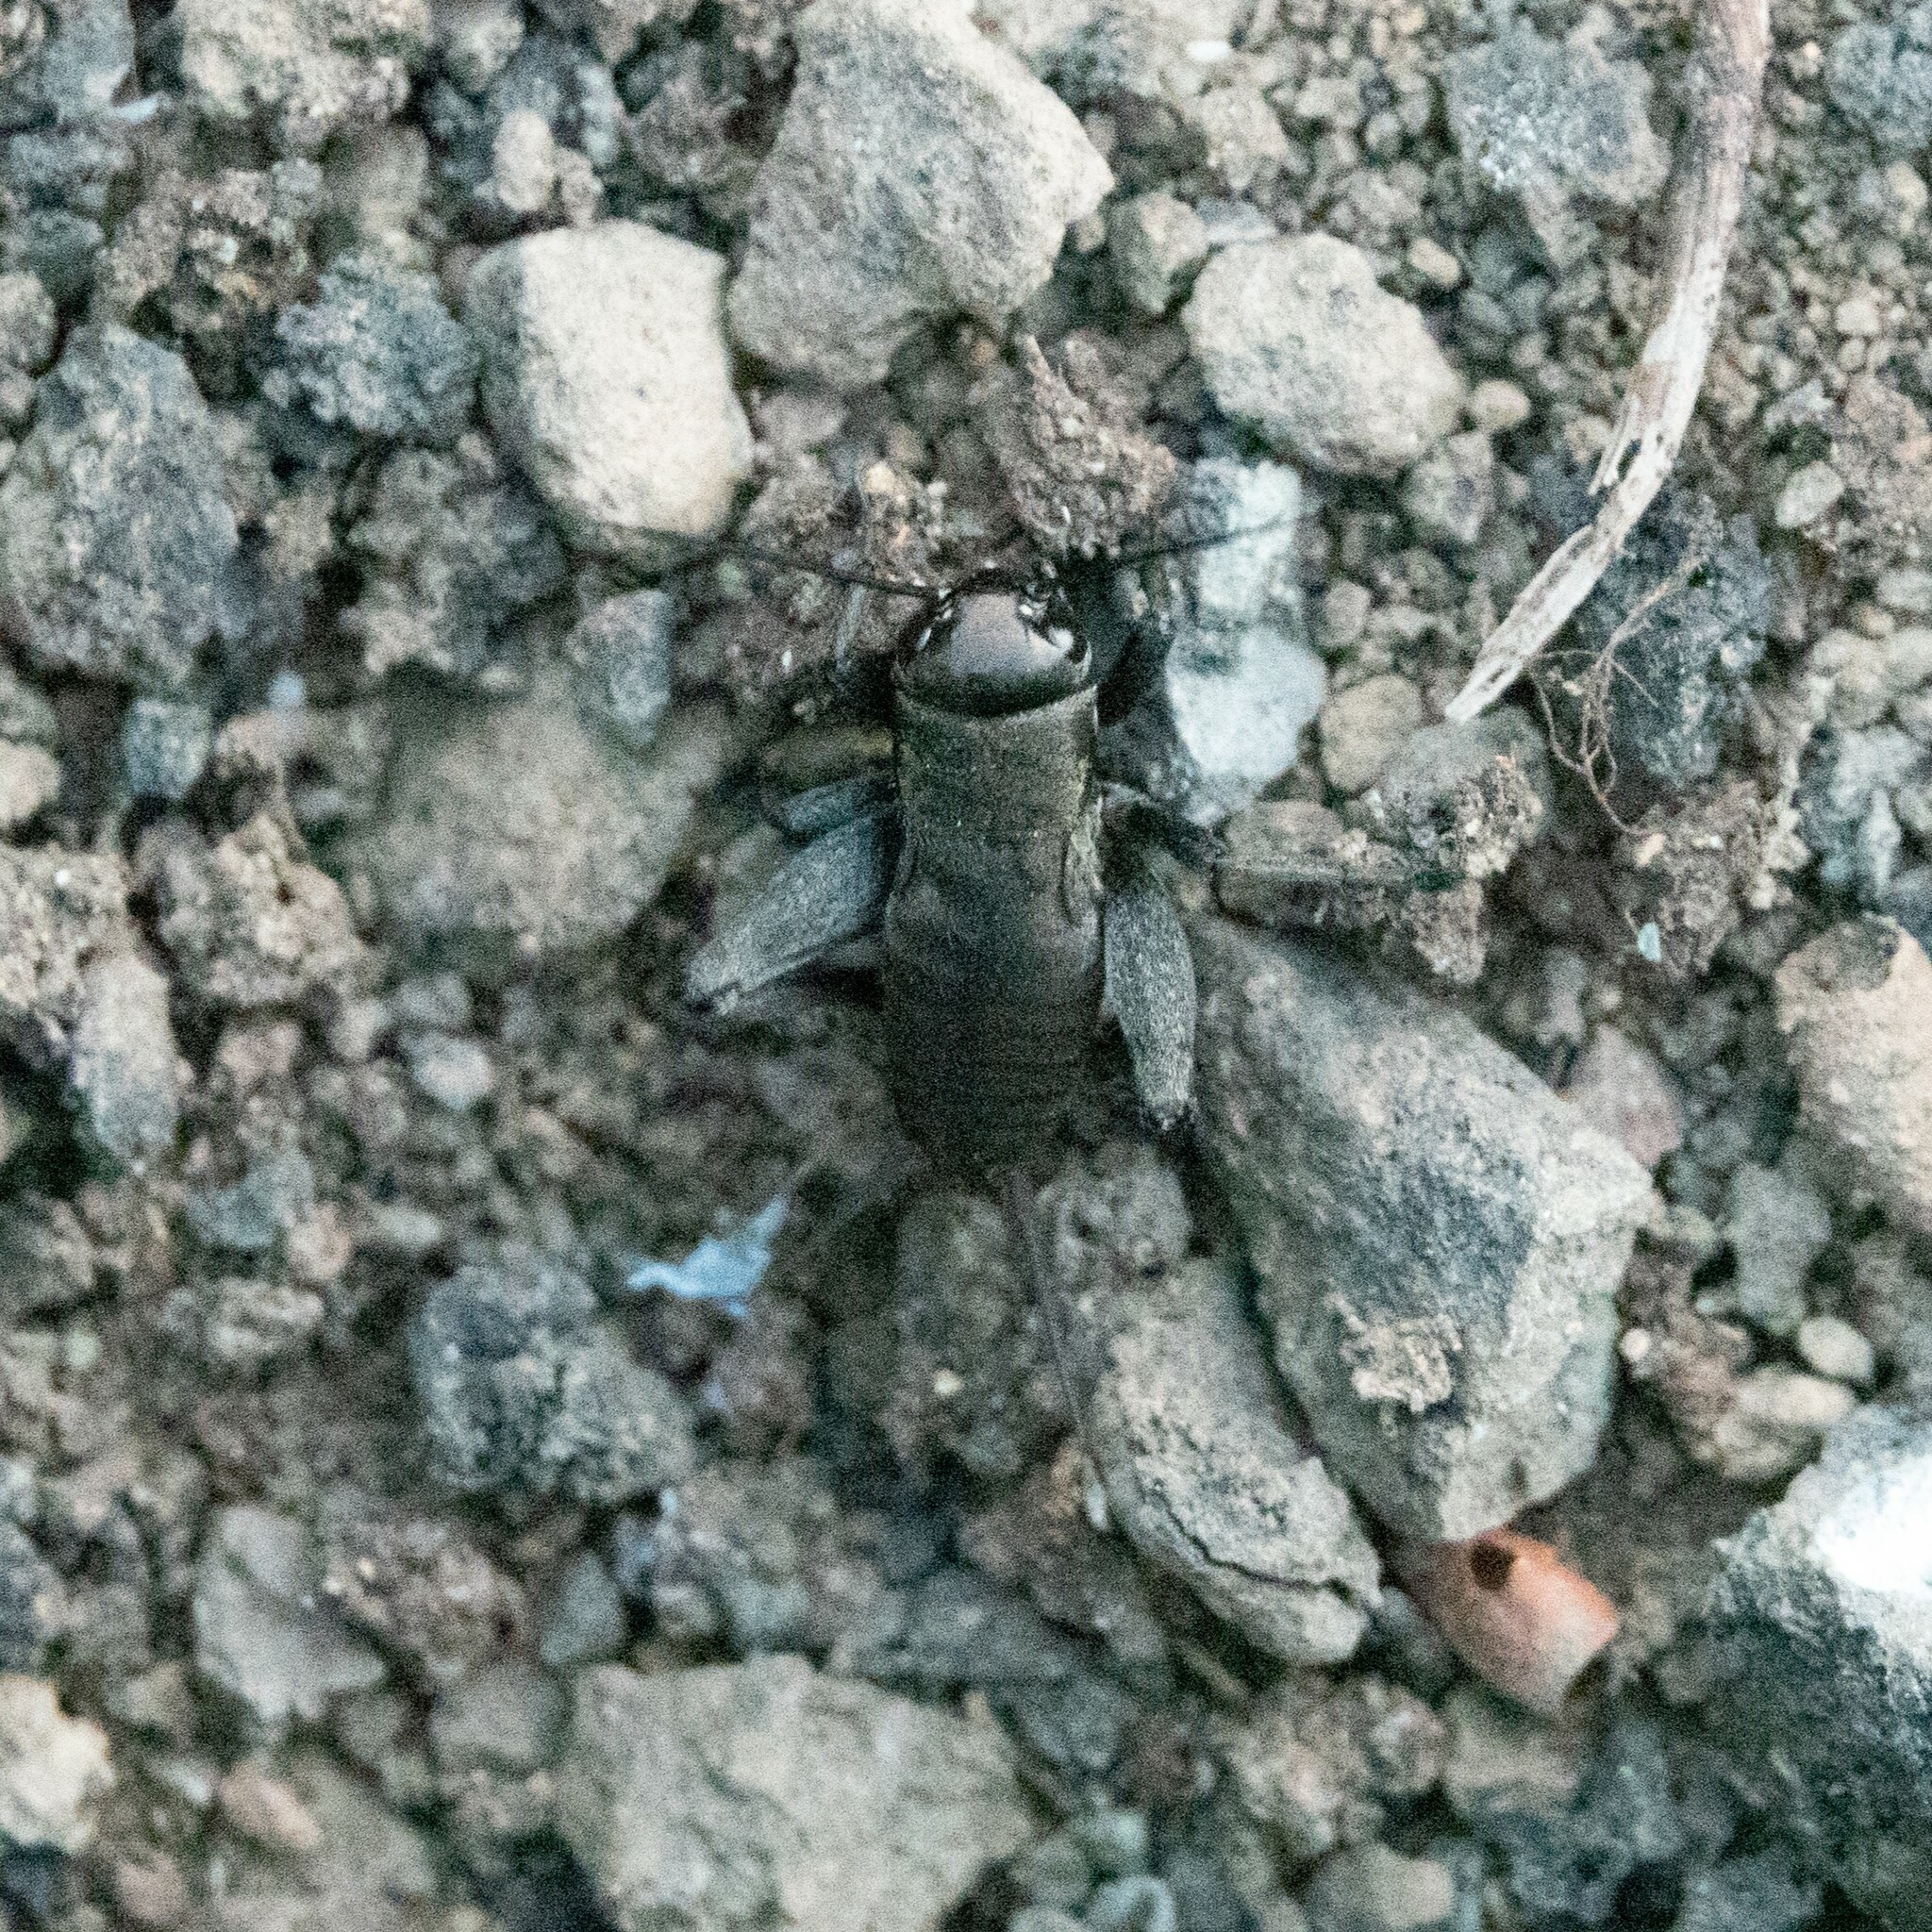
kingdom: Animalia
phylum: Arthropoda
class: Insecta
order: Orthoptera
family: Gryllidae
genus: Melanogryllus
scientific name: Melanogryllus desertus
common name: Desert cricket
